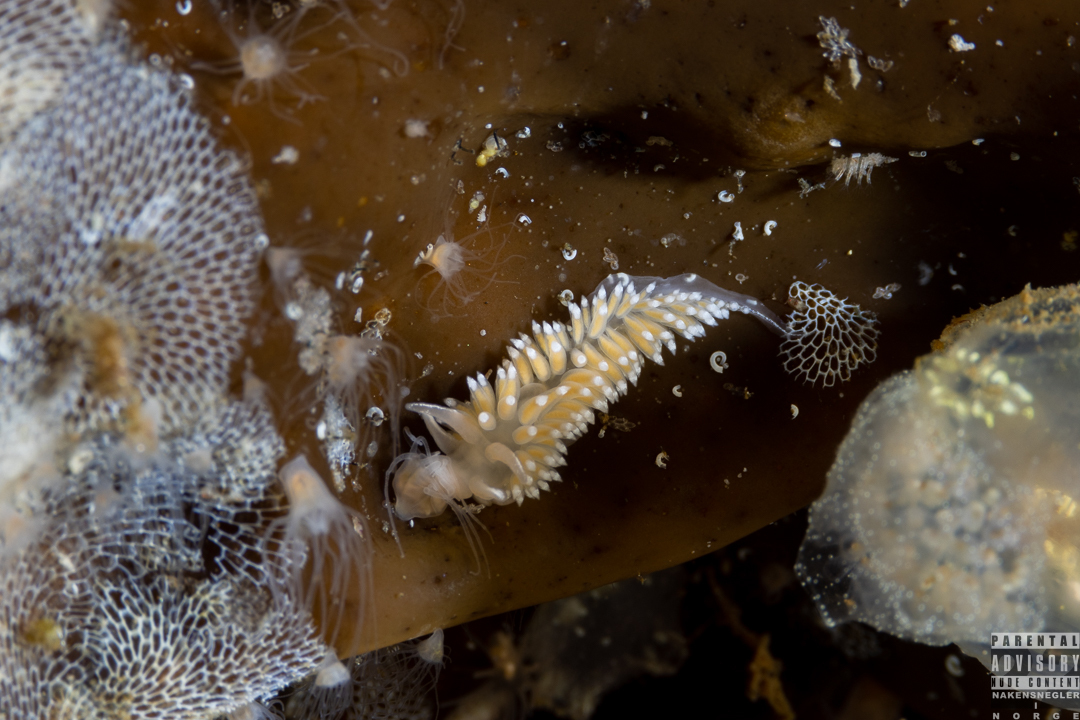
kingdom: Animalia
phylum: Mollusca
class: Gastropoda
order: Nudibranchia
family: Coryphellidae
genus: Coryphella
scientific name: Coryphella verrucosa
